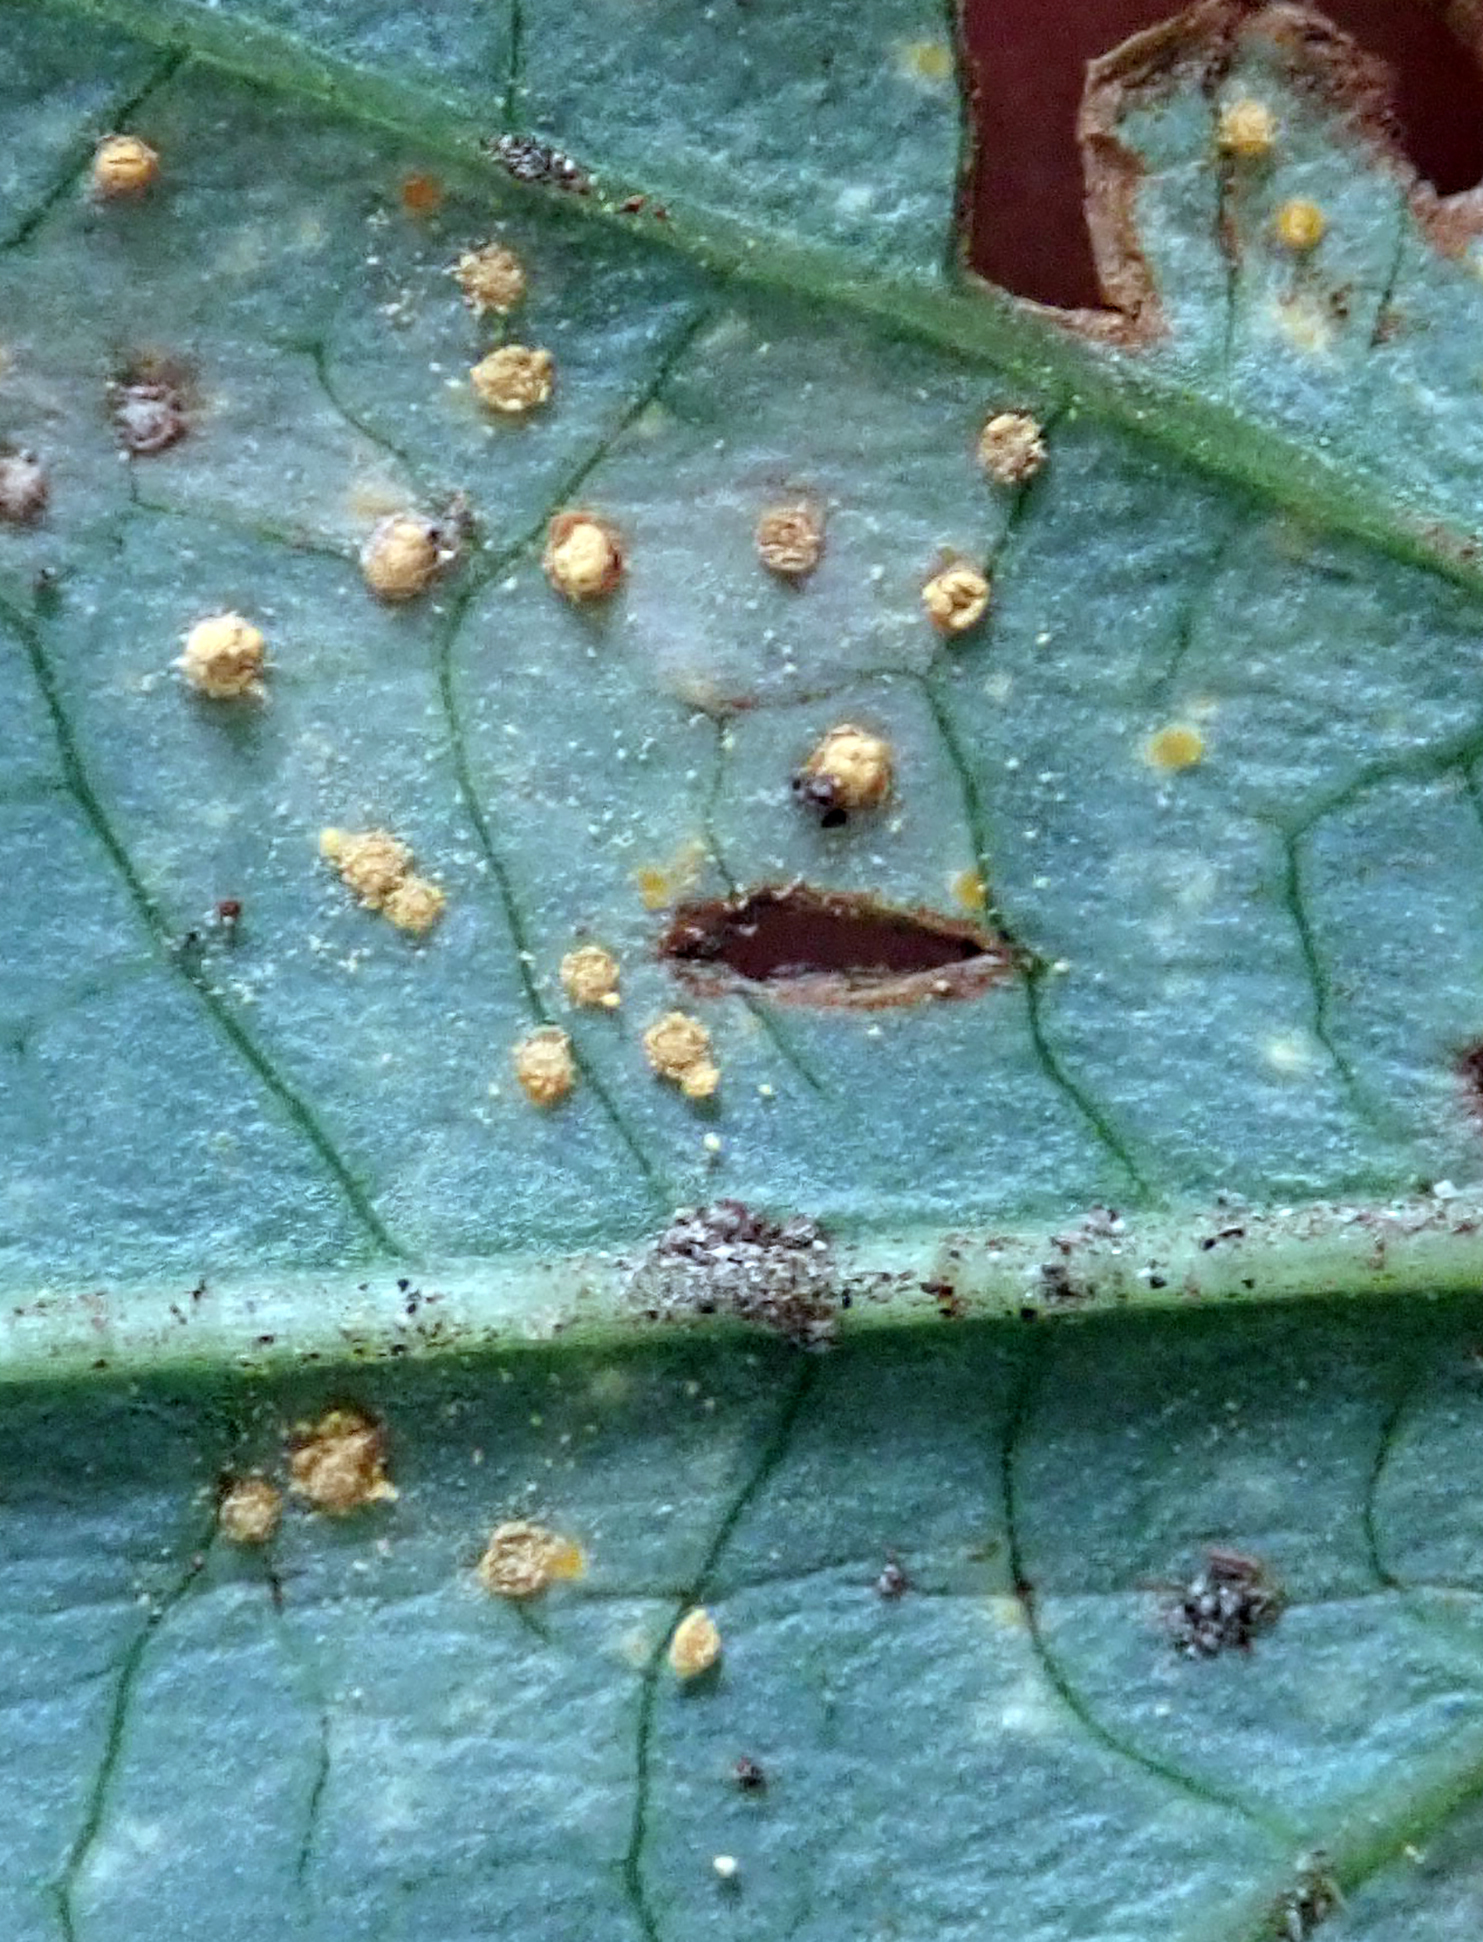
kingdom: Fungi
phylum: Basidiomycota
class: Pucciniomycetes
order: Pucciniales
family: Melampsoraceae
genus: Melampsora
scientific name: Melampsora hypericorum
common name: Tutsan rust
